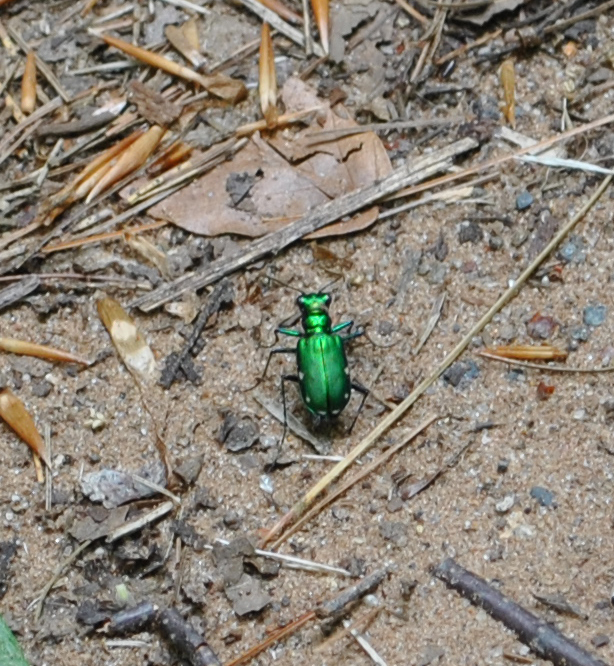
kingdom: Animalia
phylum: Arthropoda
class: Insecta
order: Coleoptera
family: Carabidae
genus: Cicindela
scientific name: Cicindela sexguttata
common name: Six-spotted tiger beetle
